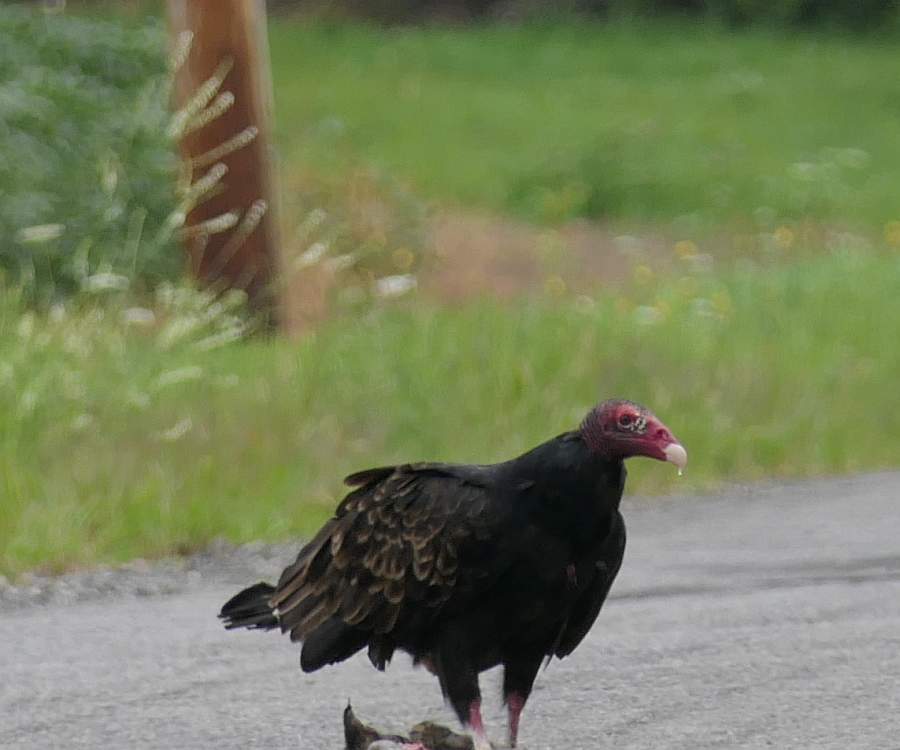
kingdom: Animalia
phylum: Chordata
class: Aves
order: Accipitriformes
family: Cathartidae
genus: Cathartes
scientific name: Cathartes aura
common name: Turkey vulture
